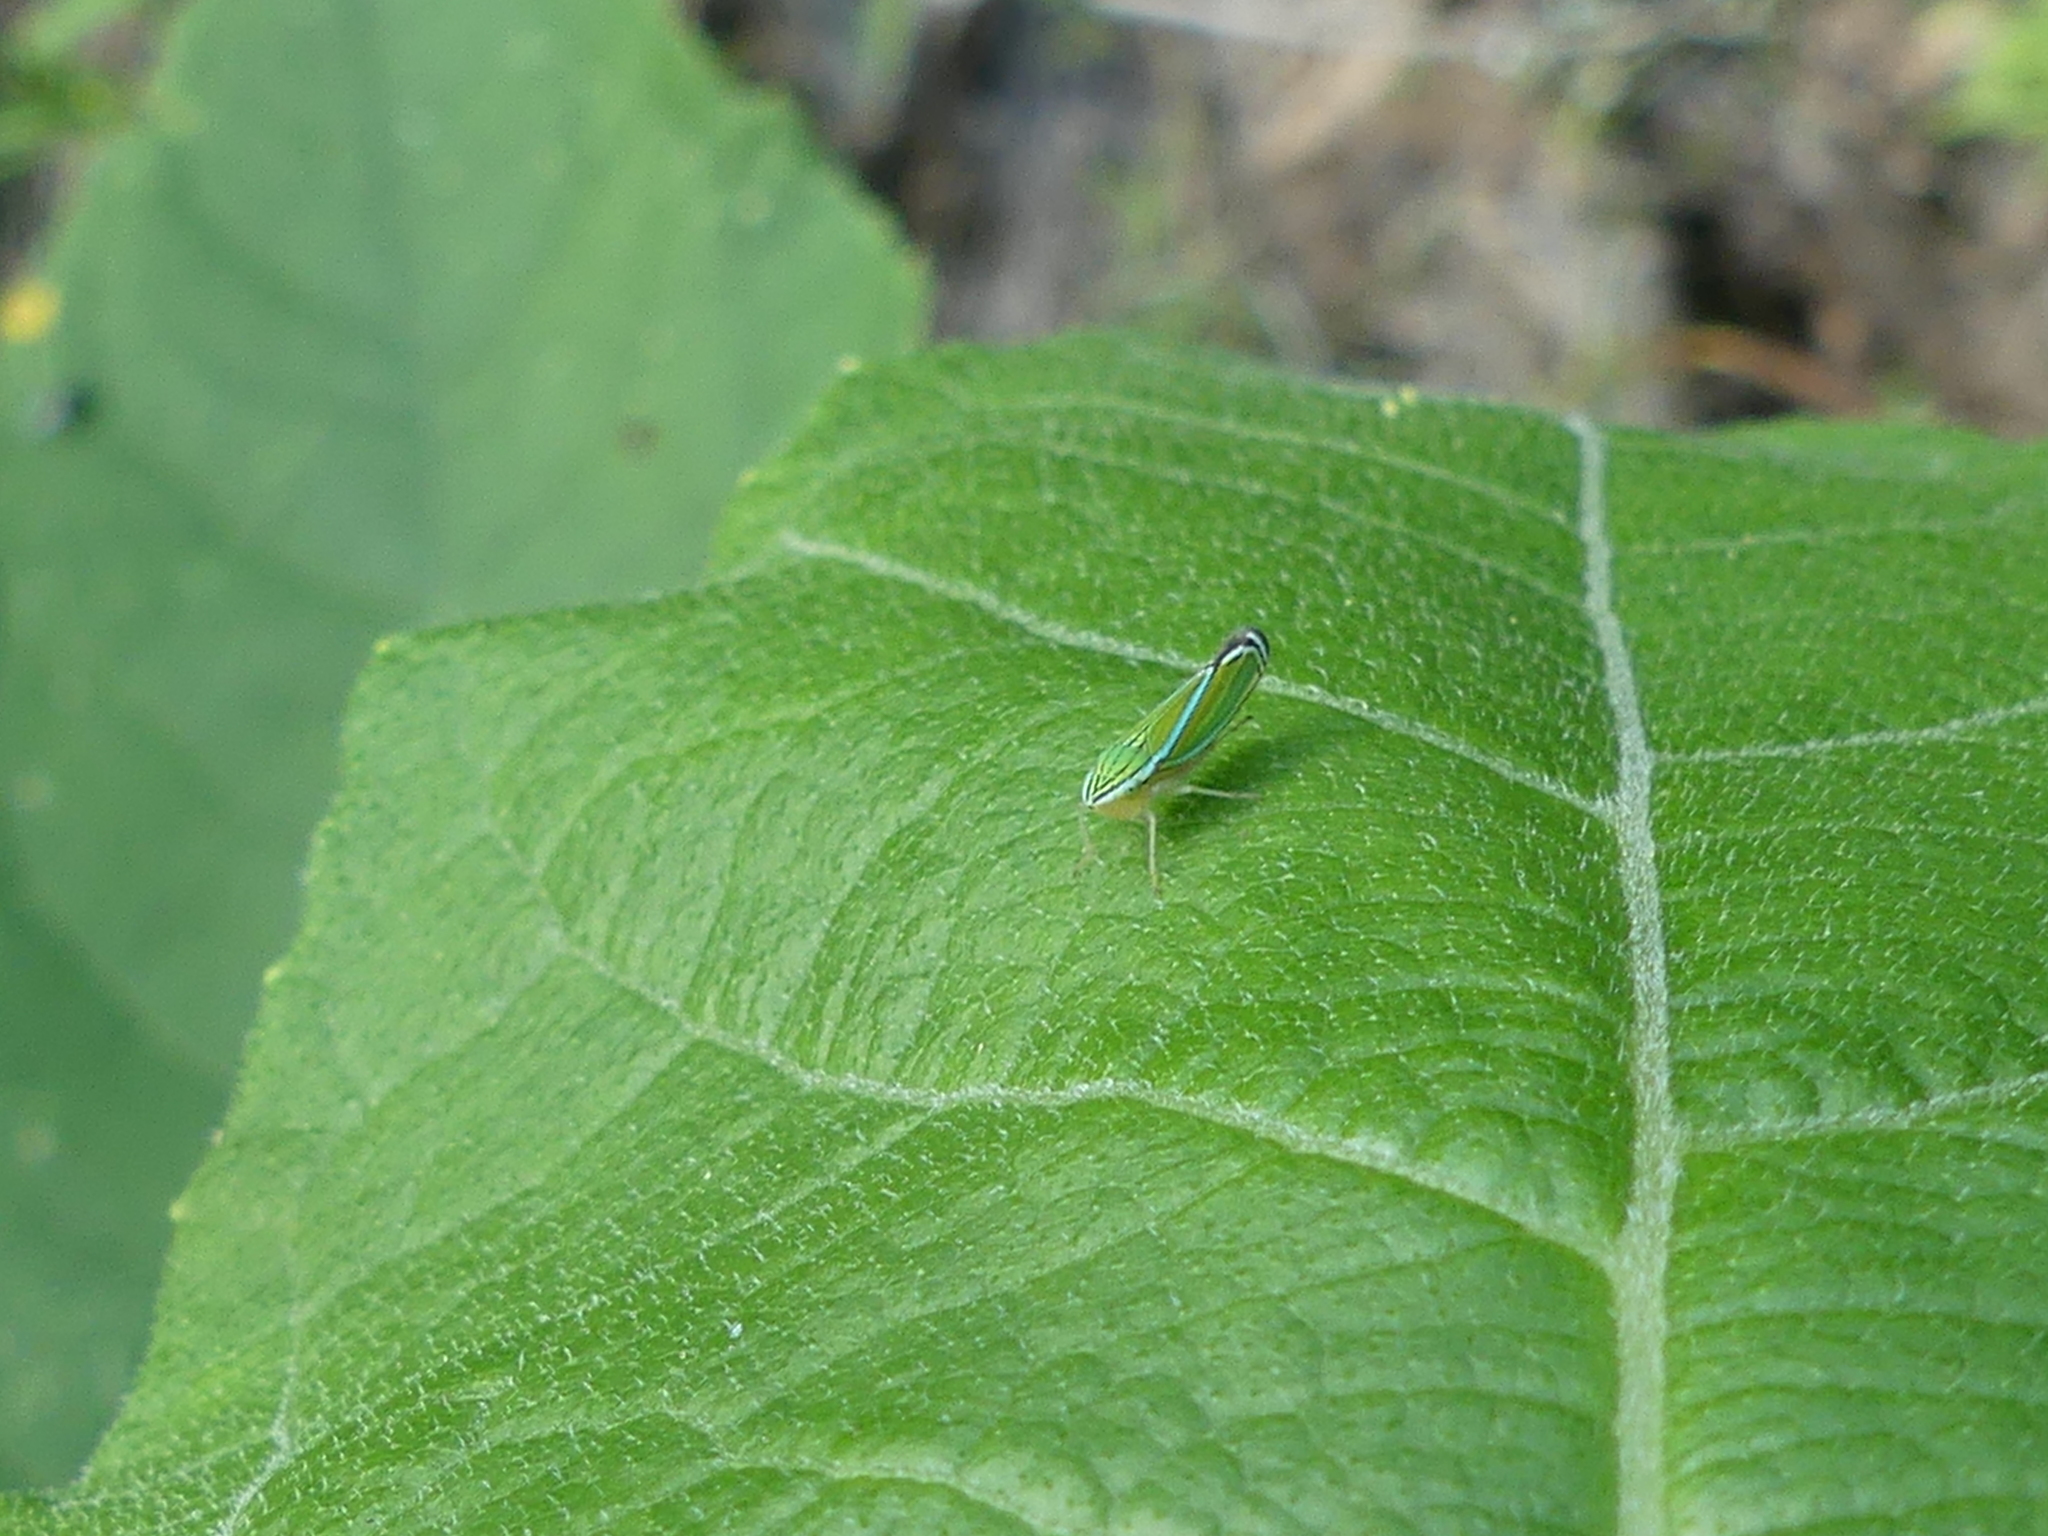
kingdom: Animalia
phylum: Arthropoda
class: Insecta
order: Hemiptera
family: Cicadellidae
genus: Sibovia
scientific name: Sibovia occatoria
